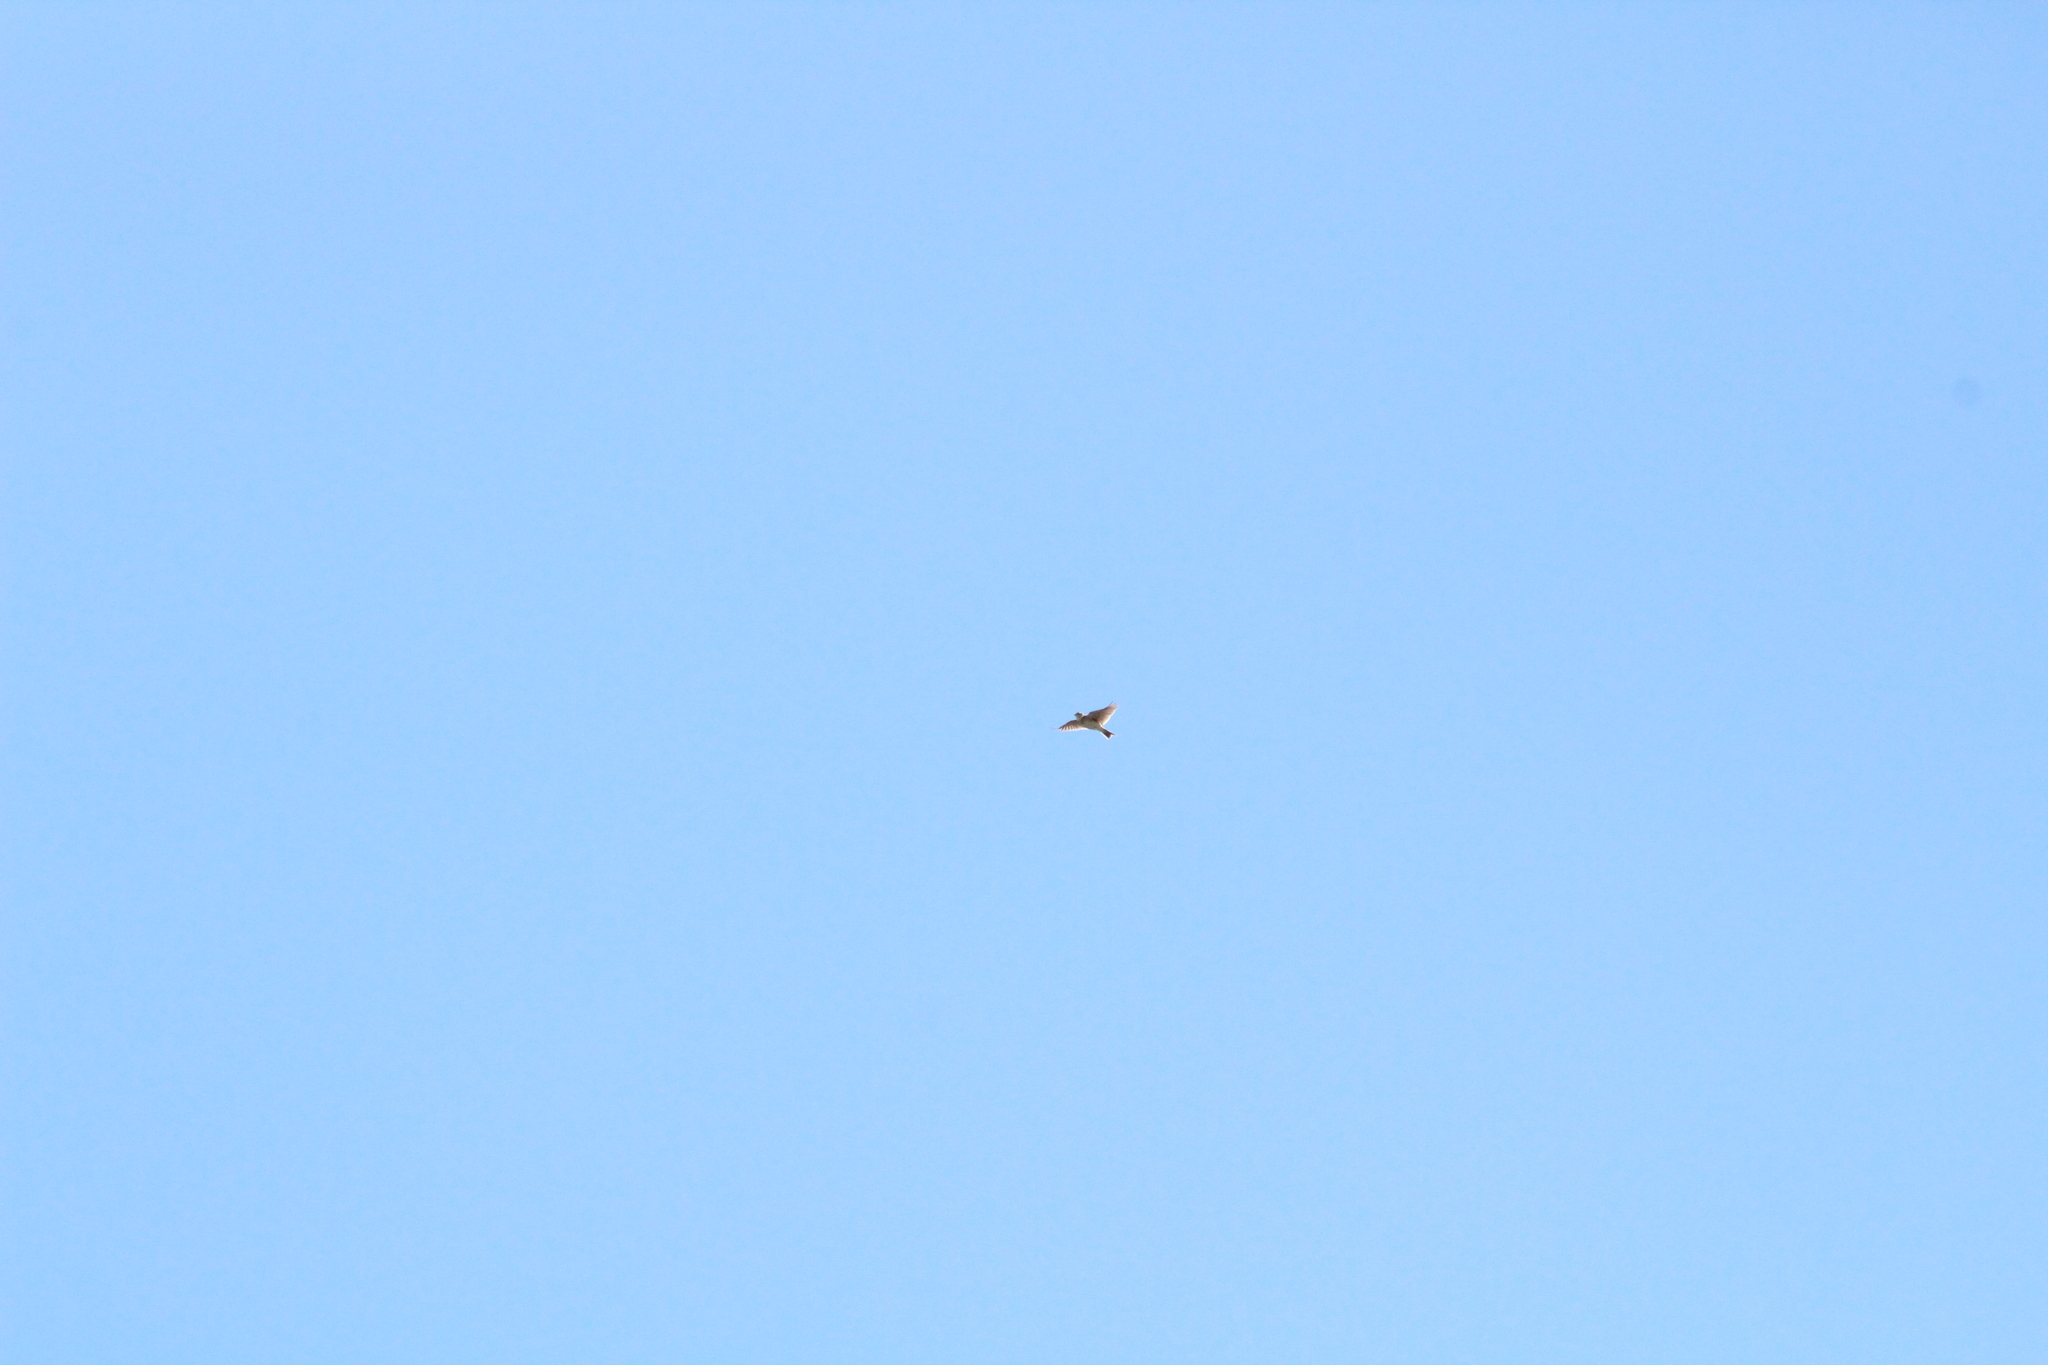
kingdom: Animalia
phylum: Chordata
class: Aves
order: Passeriformes
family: Alaudidae
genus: Alauda
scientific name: Alauda arvensis
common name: Eurasian skylark
